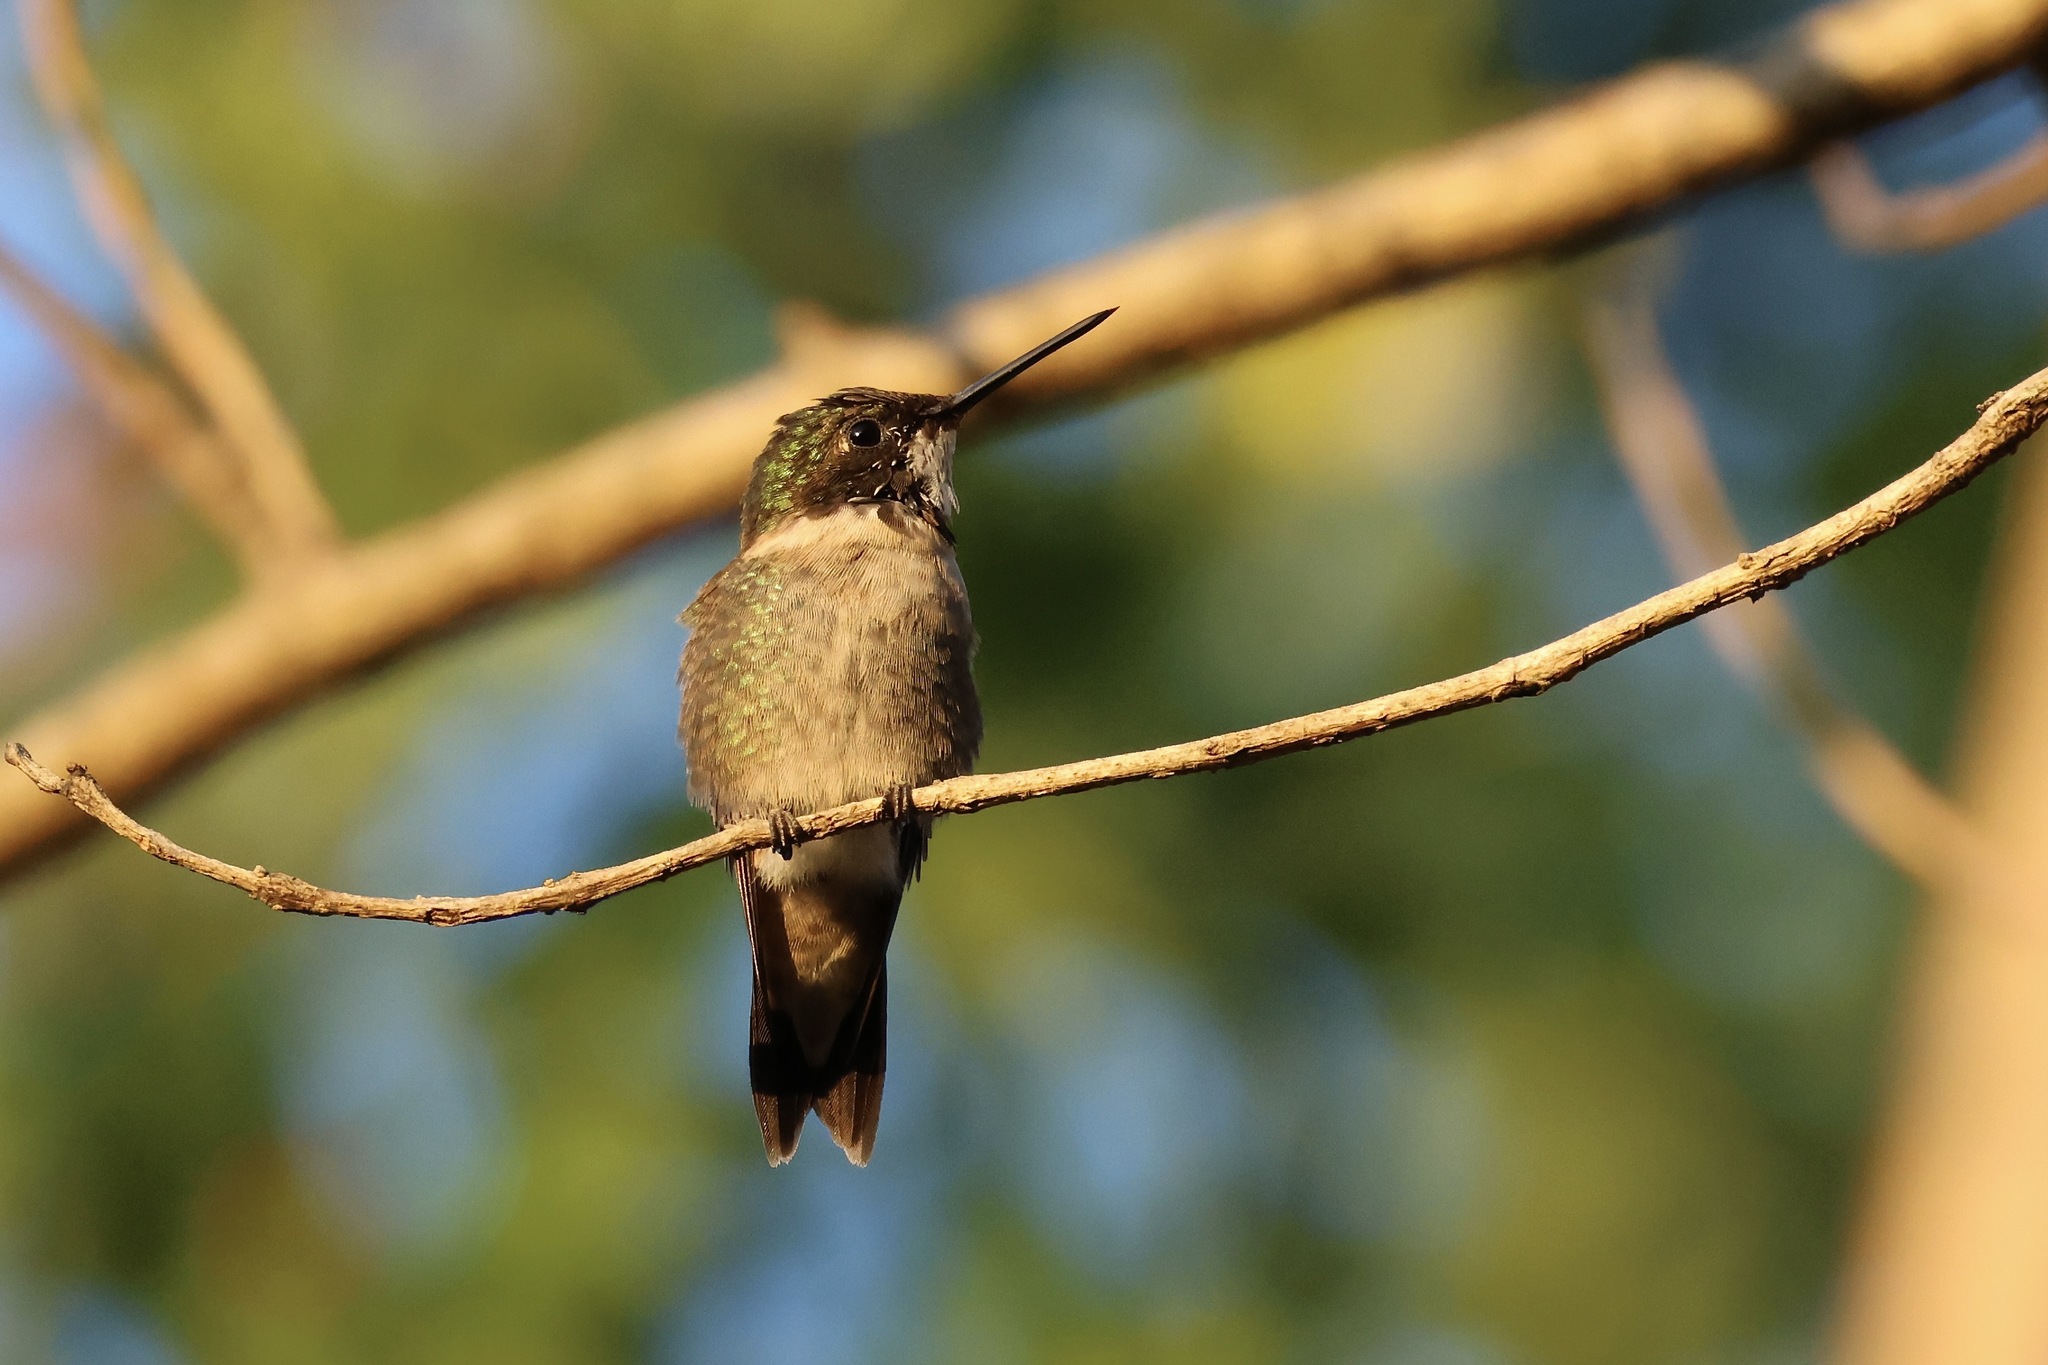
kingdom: Animalia
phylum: Chordata
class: Aves
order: Apodiformes
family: Trochilidae
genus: Archilochus
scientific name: Archilochus colubris
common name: Ruby-throated hummingbird
